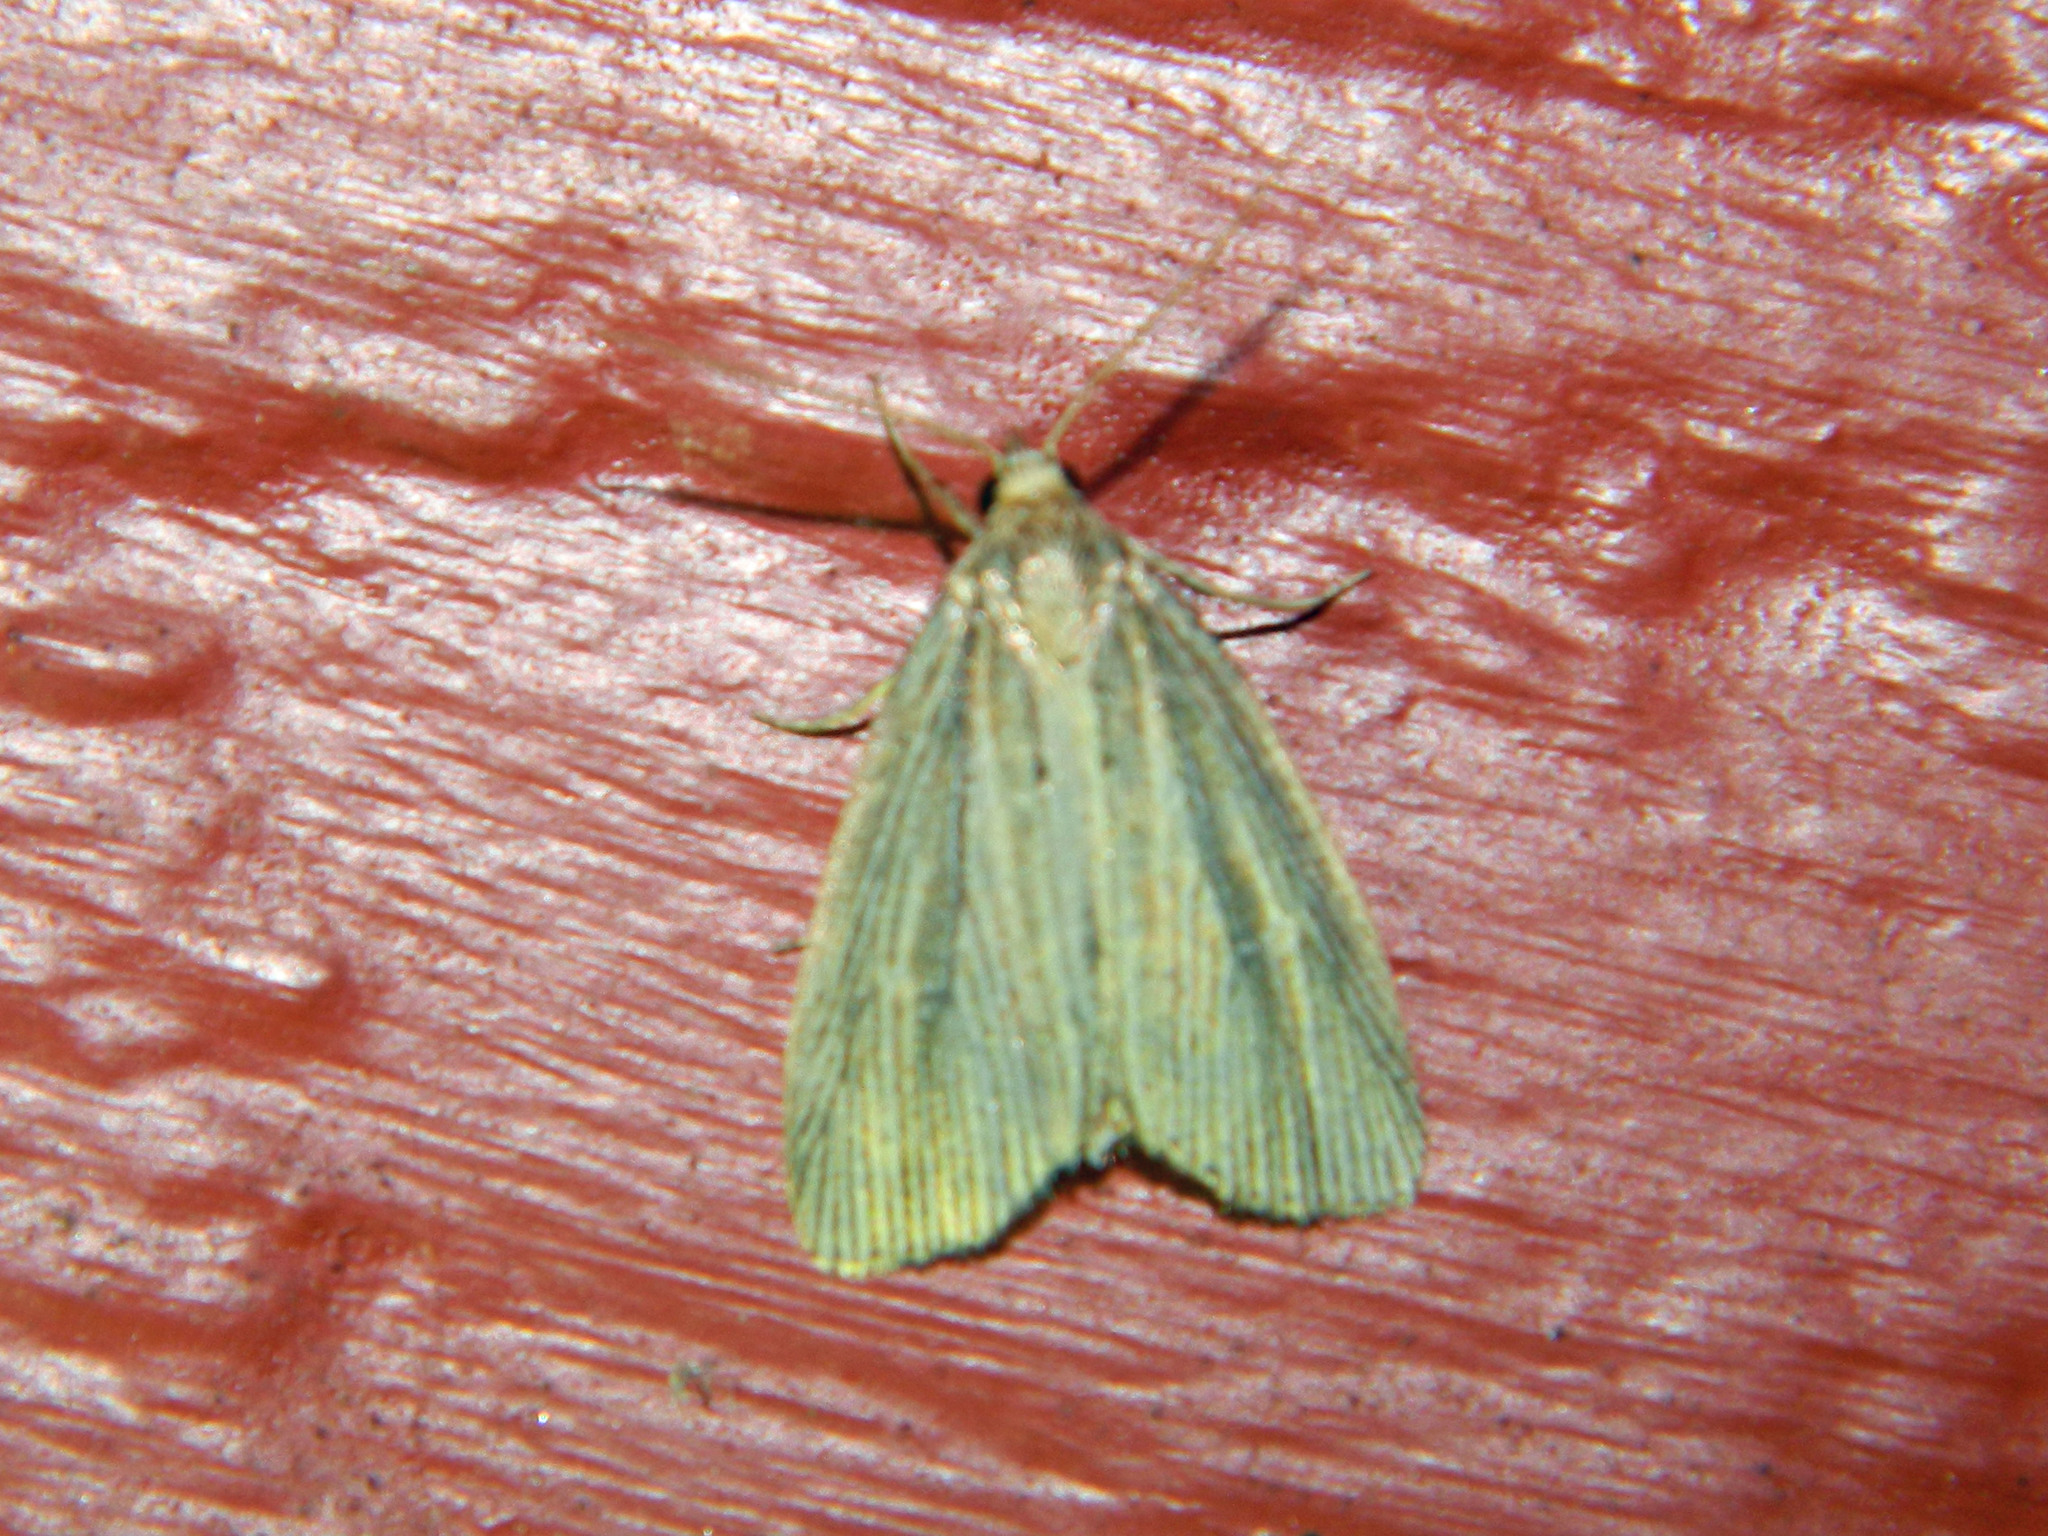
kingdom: Animalia
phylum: Arthropoda
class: Insecta
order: Lepidoptera
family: Noctuidae
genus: Photedes
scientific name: Photedes defecta
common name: Narrow-winged borer moth
